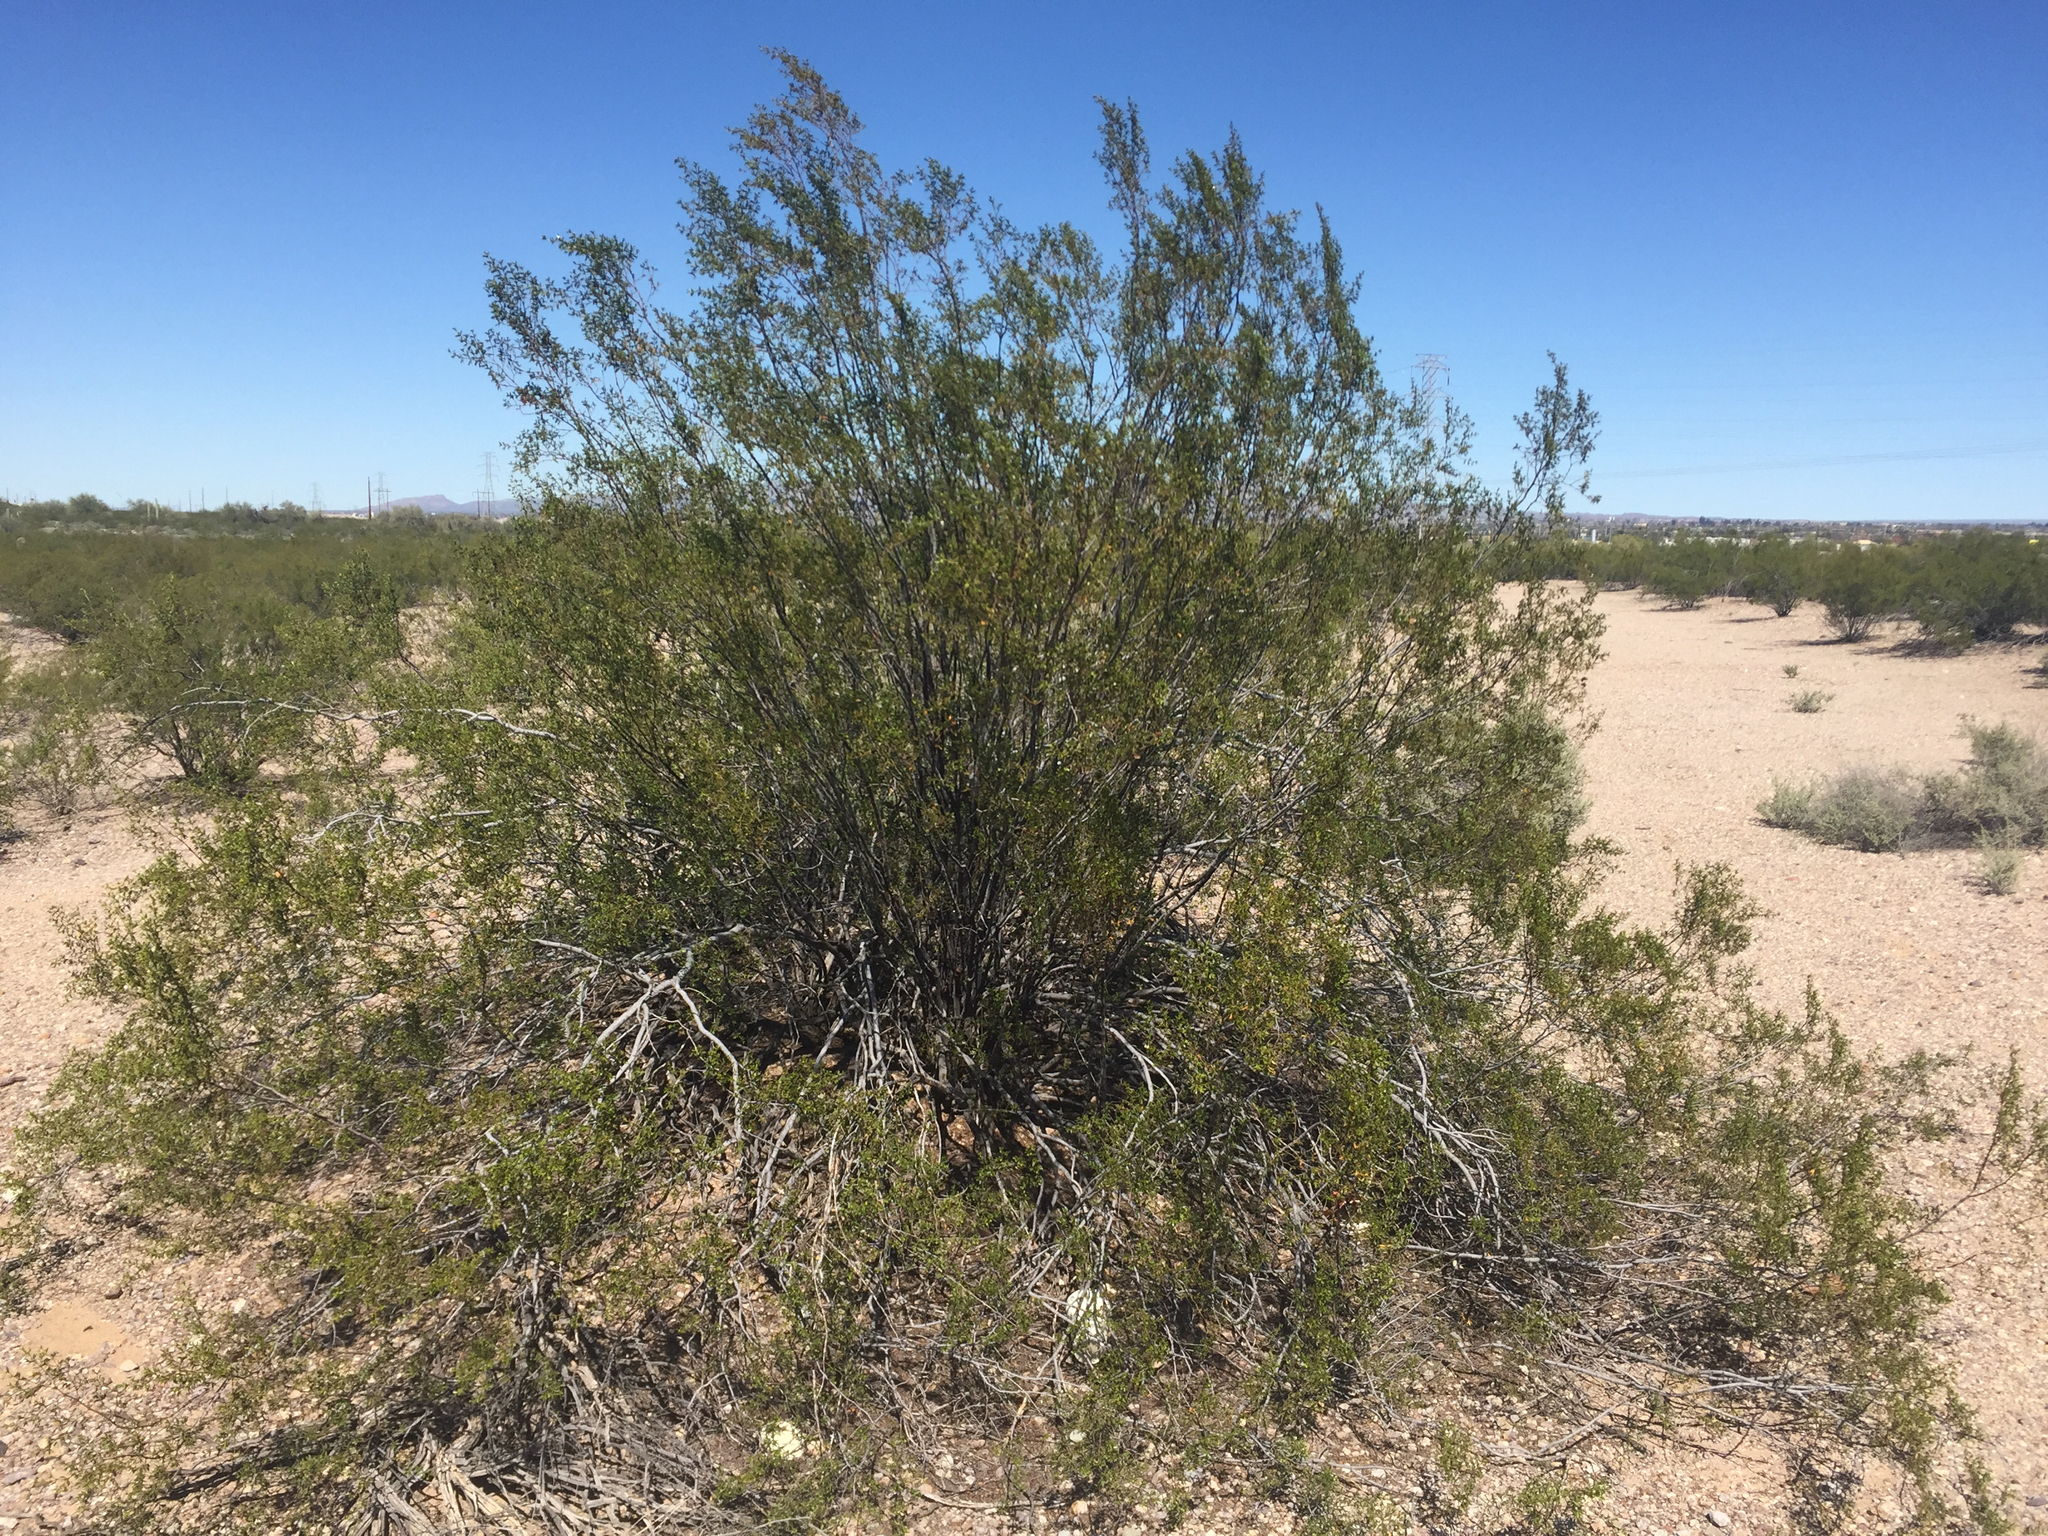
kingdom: Plantae
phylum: Tracheophyta
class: Magnoliopsida
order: Zygophyllales
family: Zygophyllaceae
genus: Larrea
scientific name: Larrea tridentata
